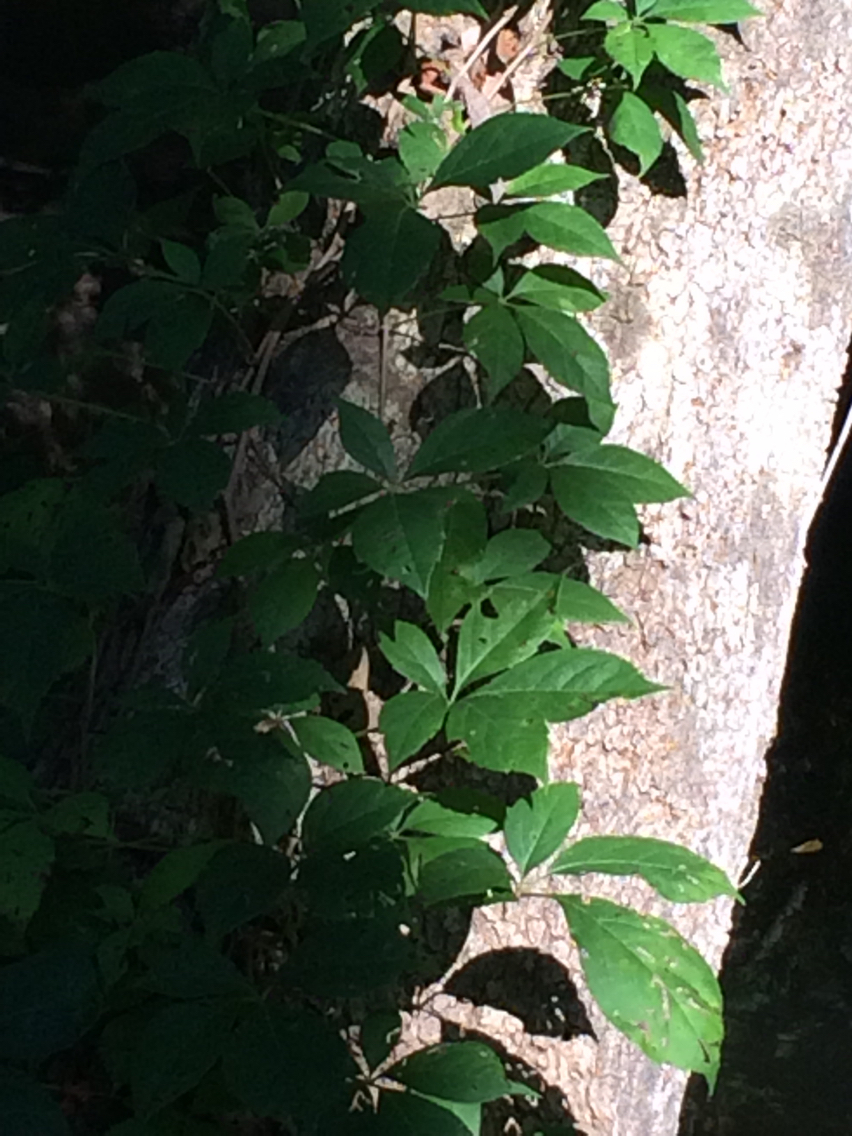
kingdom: Plantae
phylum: Tracheophyta
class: Magnoliopsida
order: Vitales
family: Vitaceae
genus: Parthenocissus
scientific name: Parthenocissus quinquefolia
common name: Virginia-creeper
